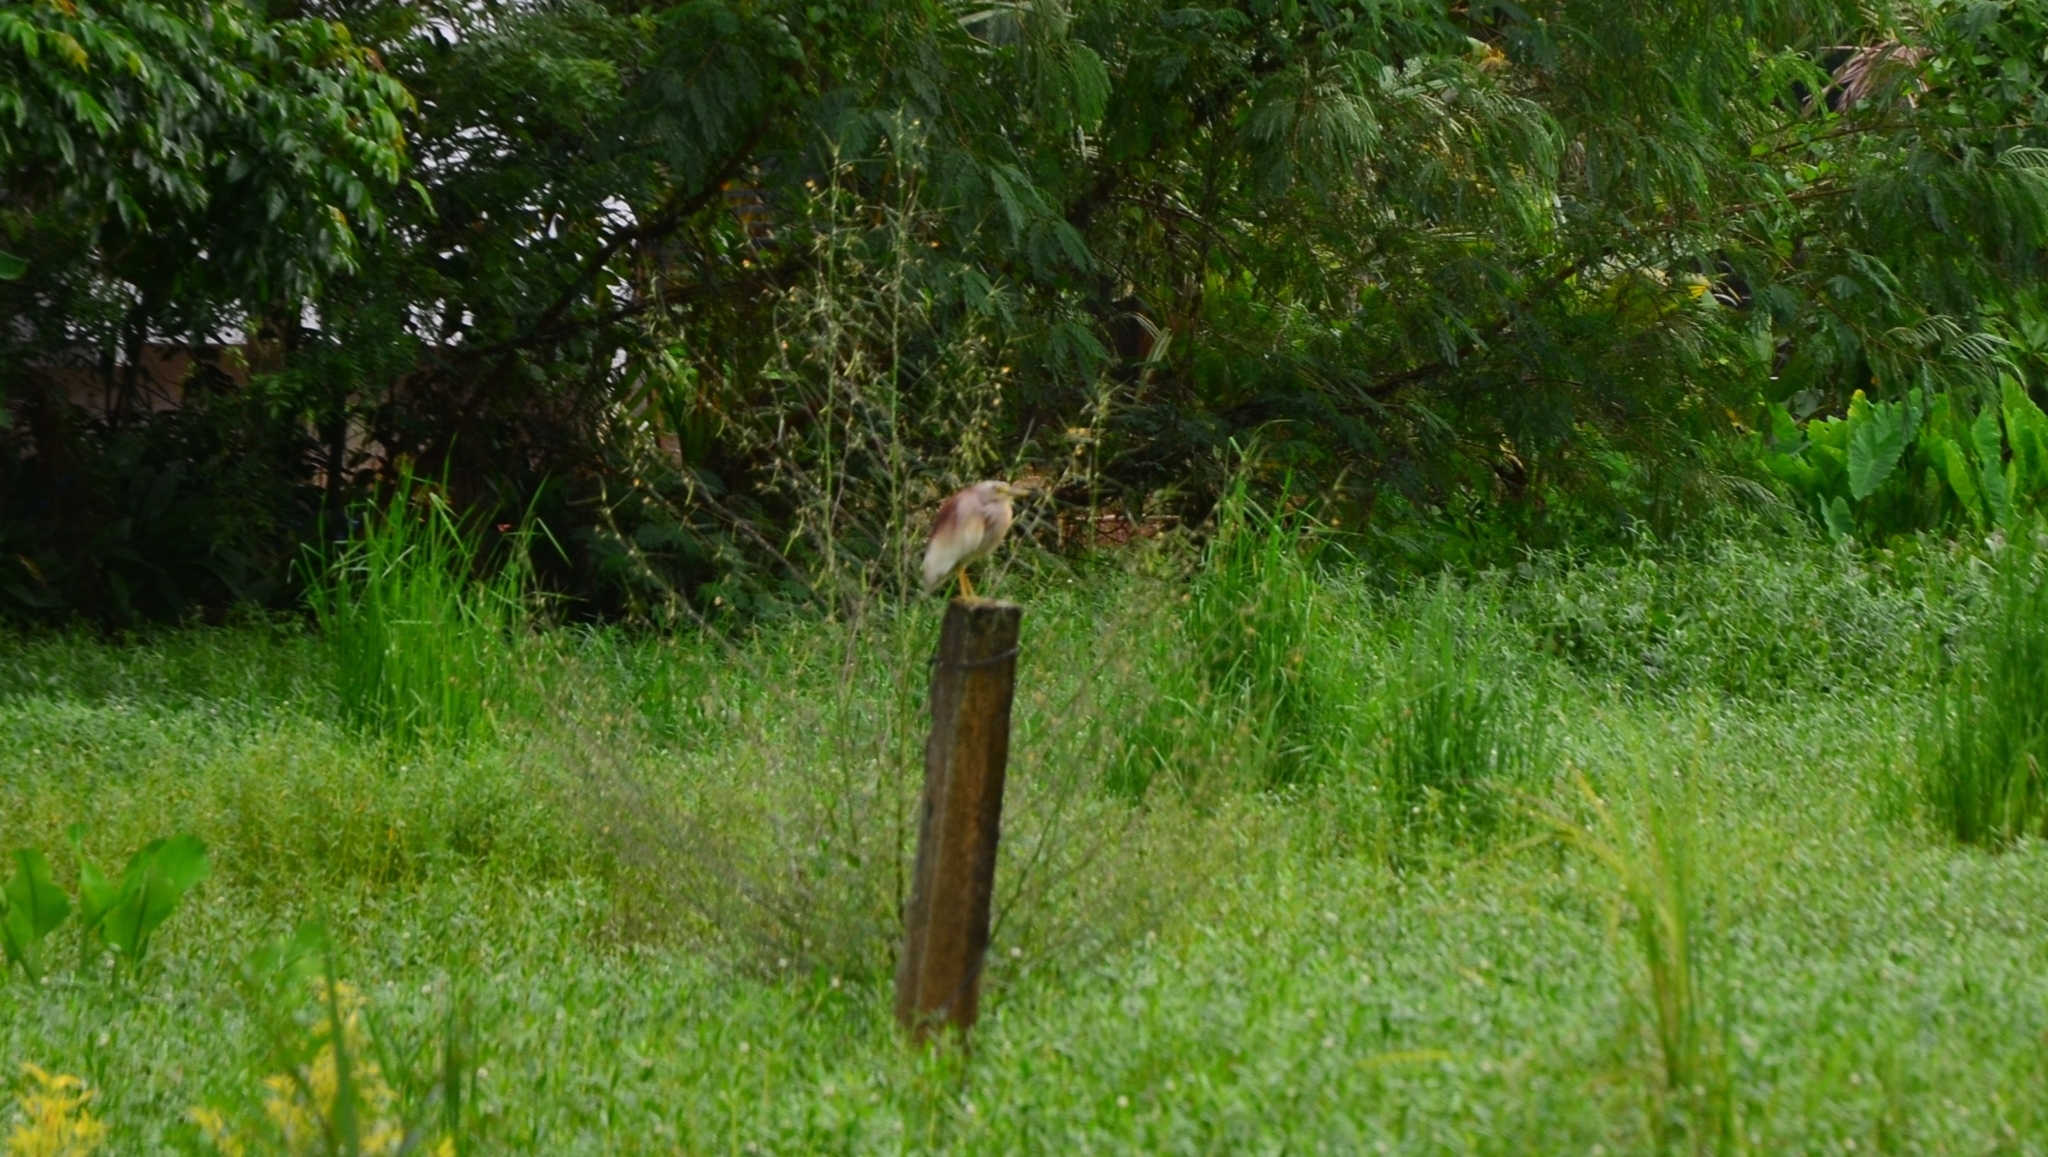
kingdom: Animalia
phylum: Chordata
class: Aves
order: Pelecaniformes
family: Ardeidae
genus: Ardeola
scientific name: Ardeola grayii
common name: Indian pond heron
